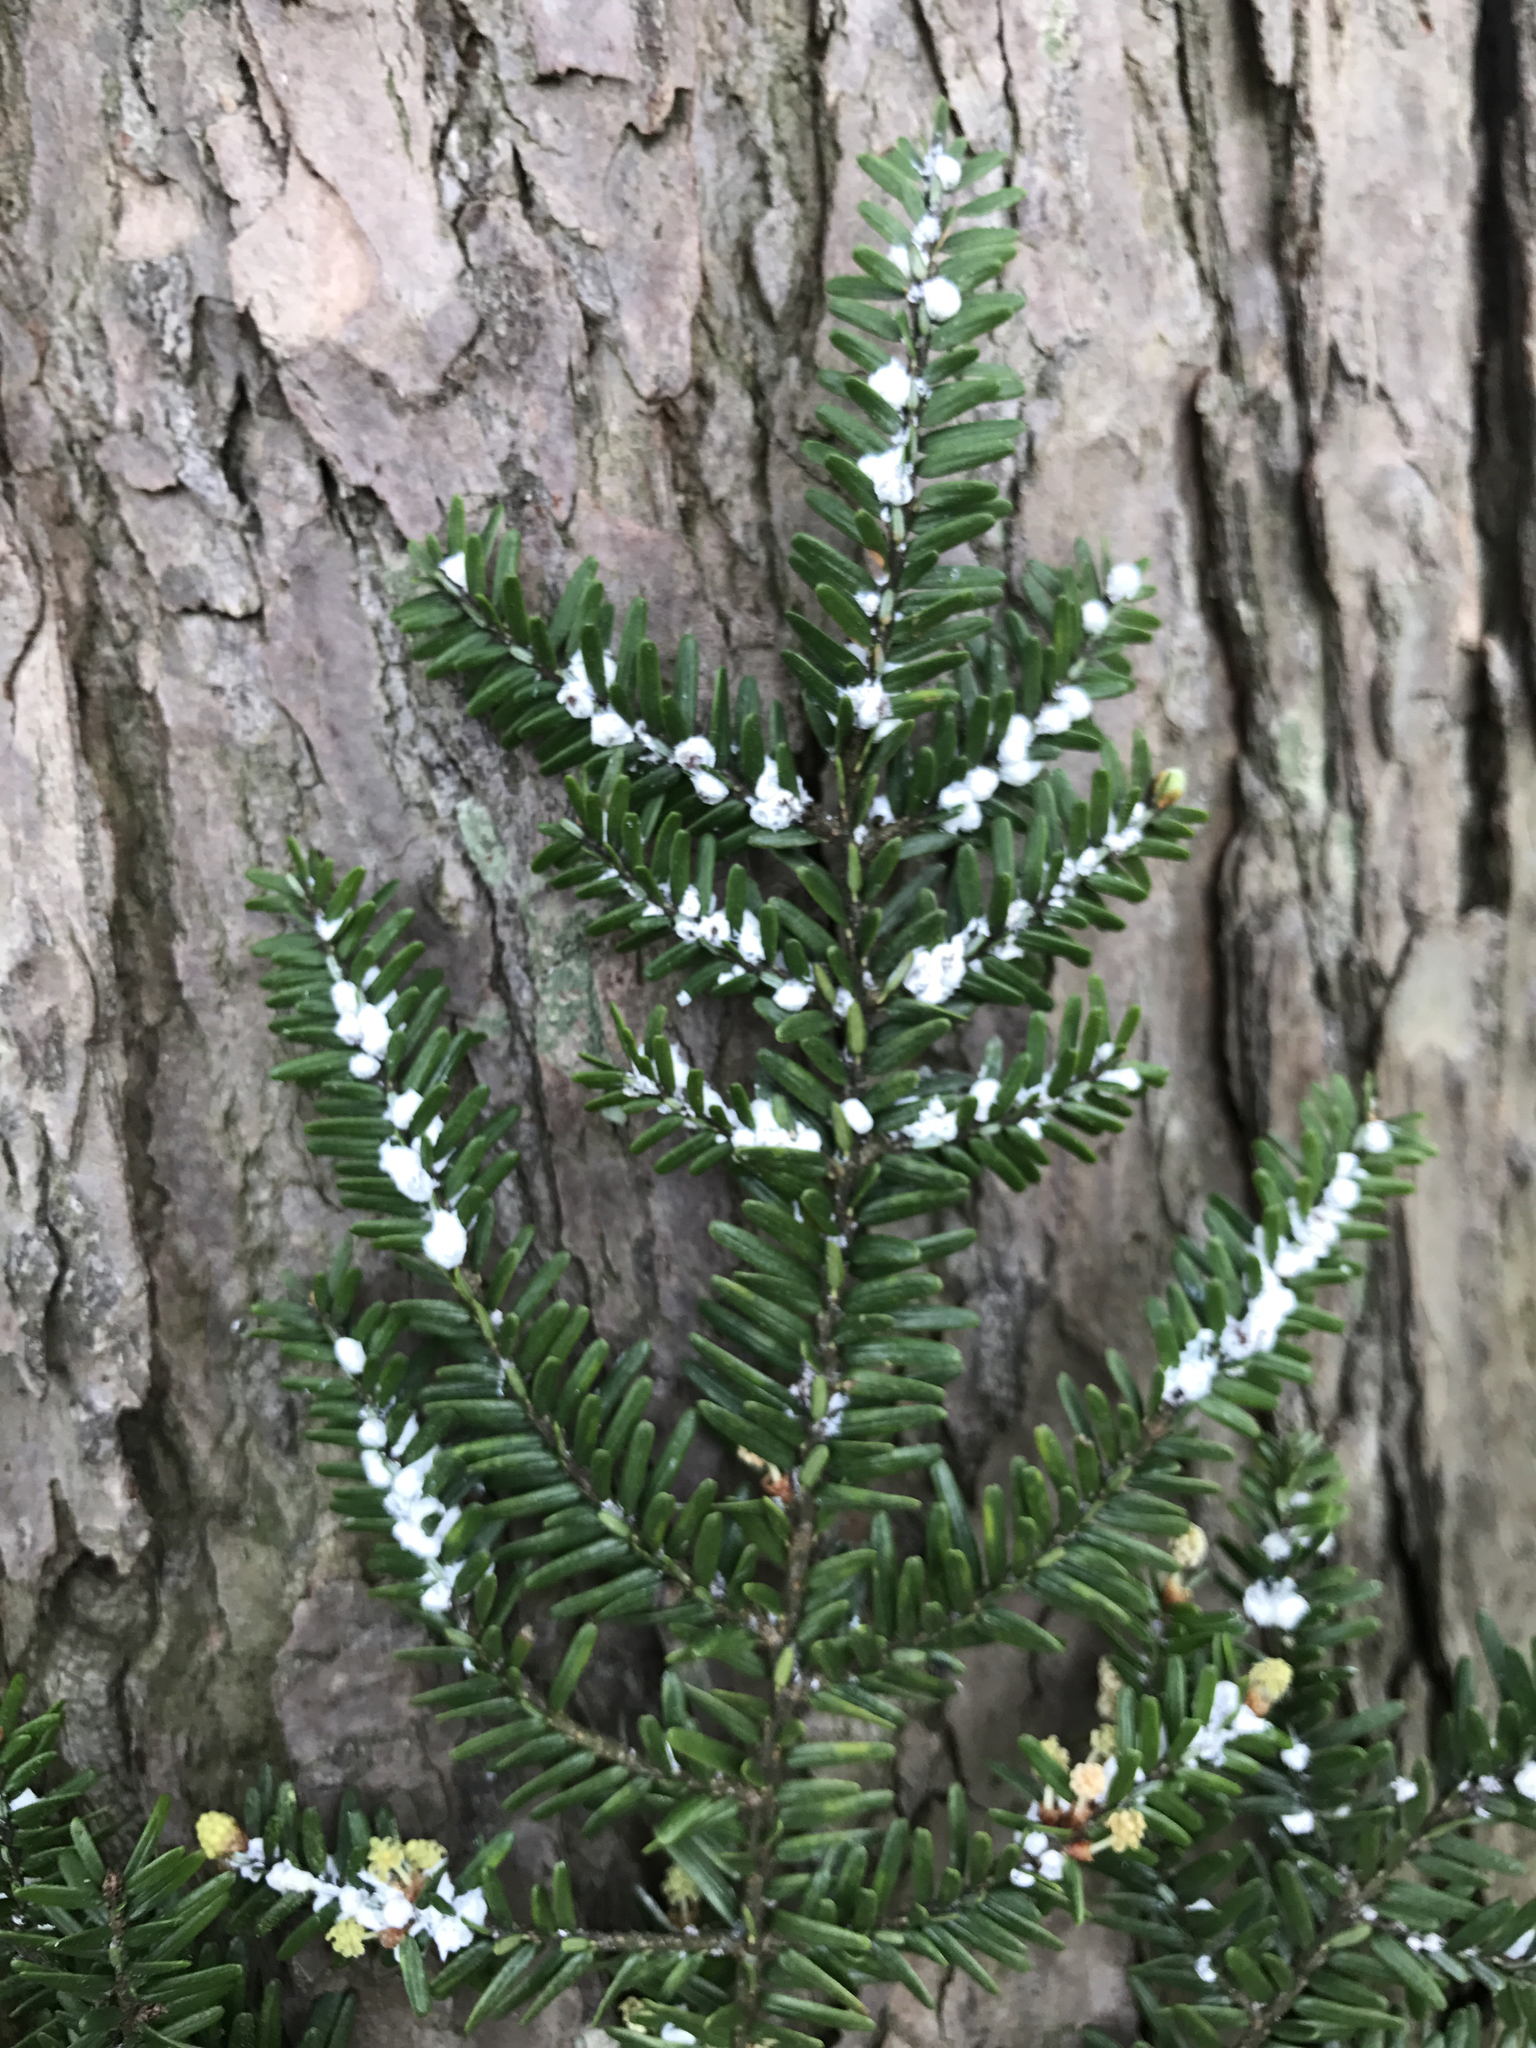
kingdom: Animalia
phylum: Arthropoda
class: Insecta
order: Hemiptera
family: Adelgidae
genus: Adelges
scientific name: Adelges tsugae
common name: Hemlock woolly adelgid
